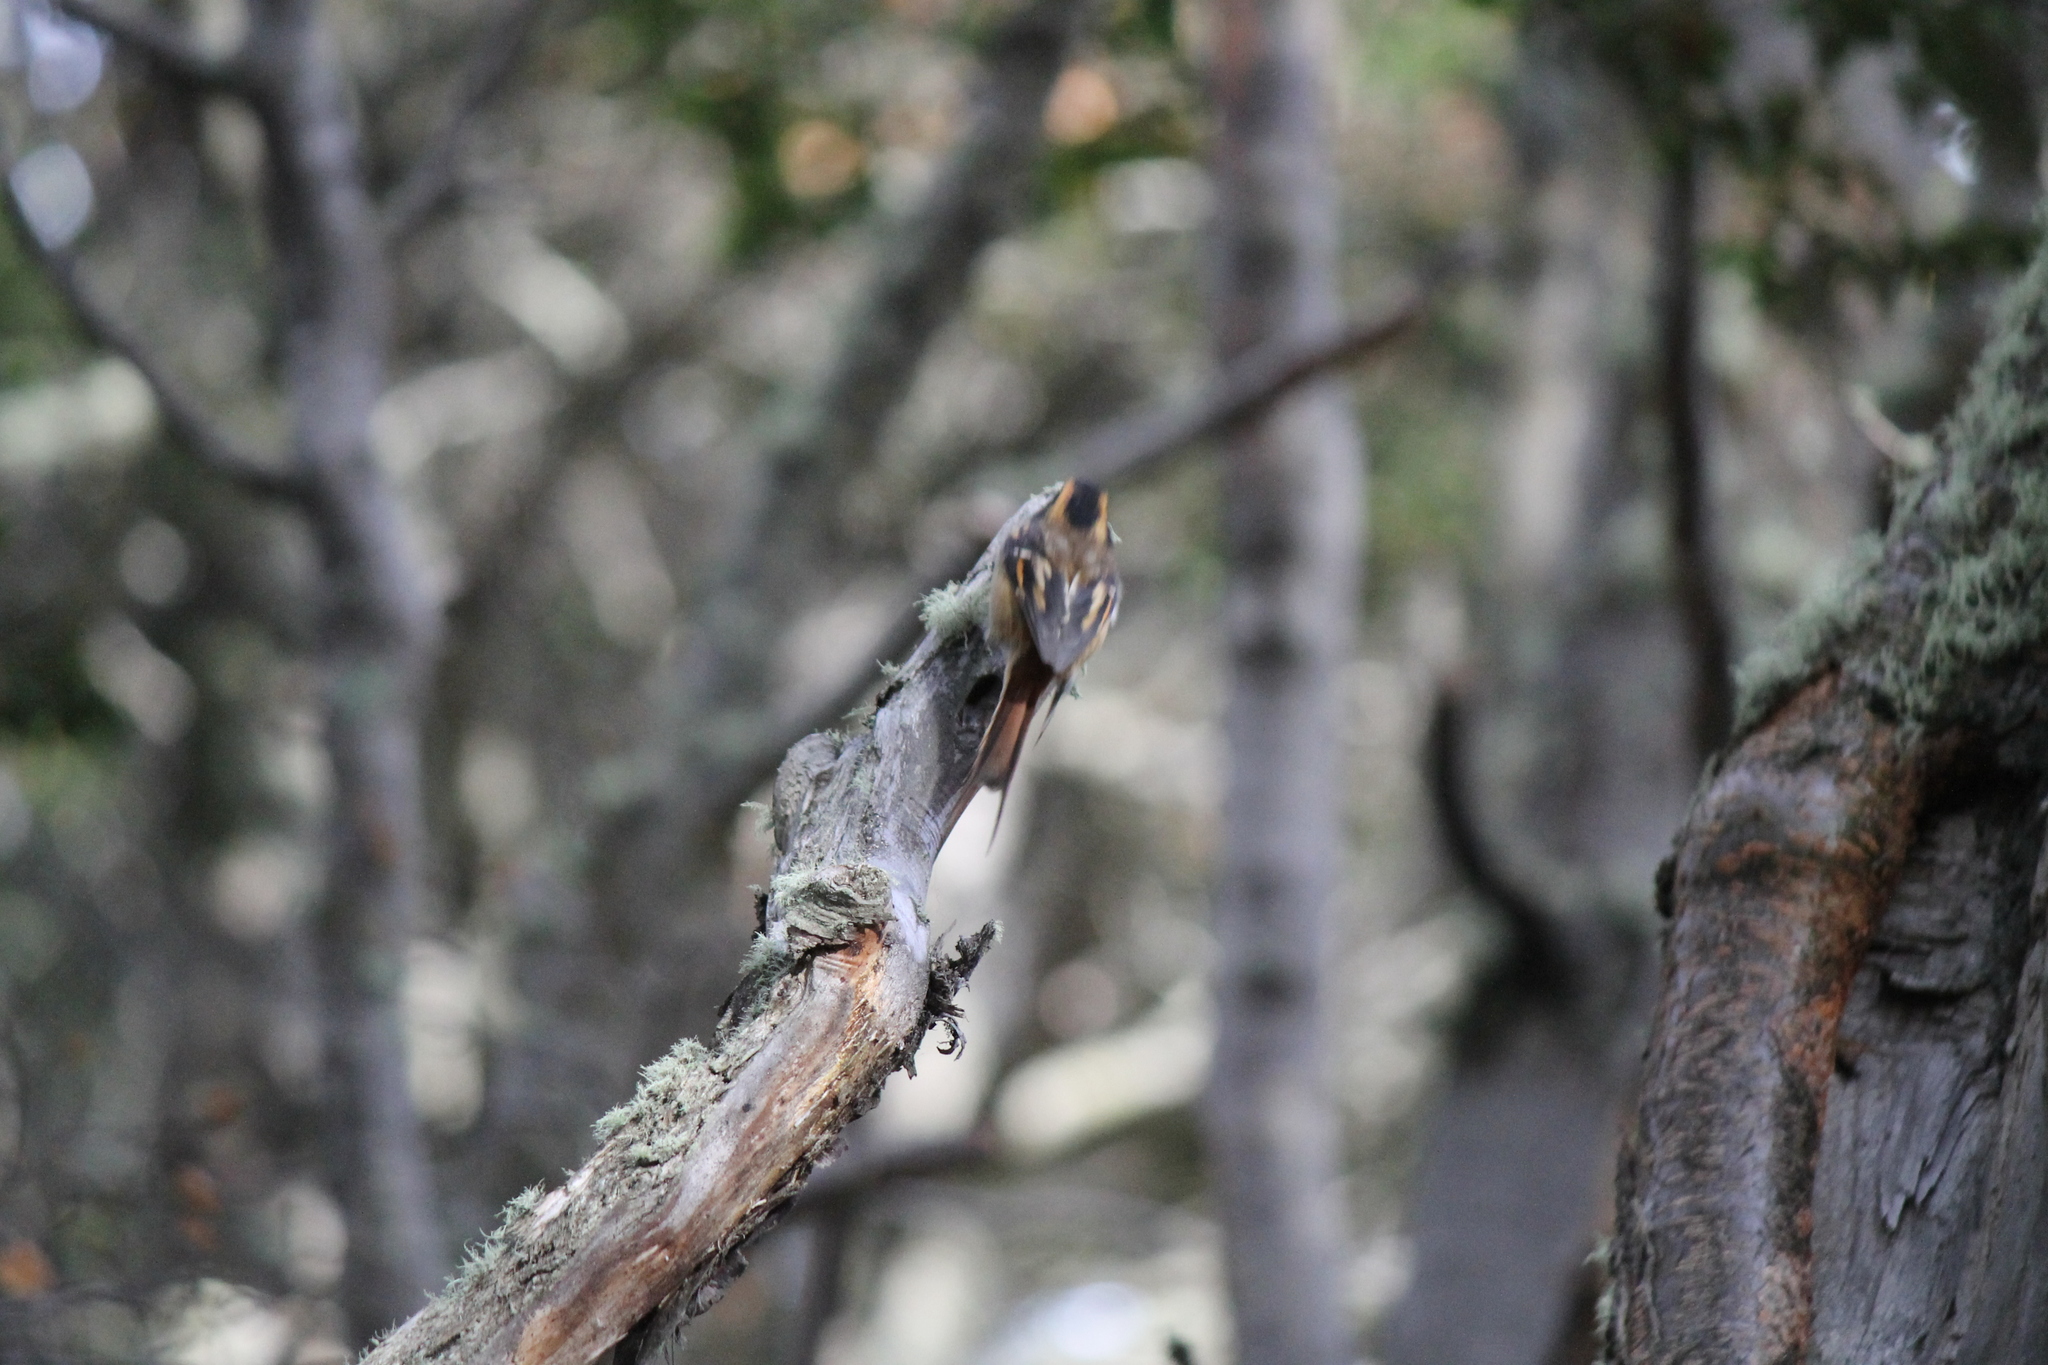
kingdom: Animalia
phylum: Chordata
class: Aves
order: Passeriformes
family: Furnariidae
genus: Aphrastura
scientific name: Aphrastura spinicauda
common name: Thorn-tailed rayadito
